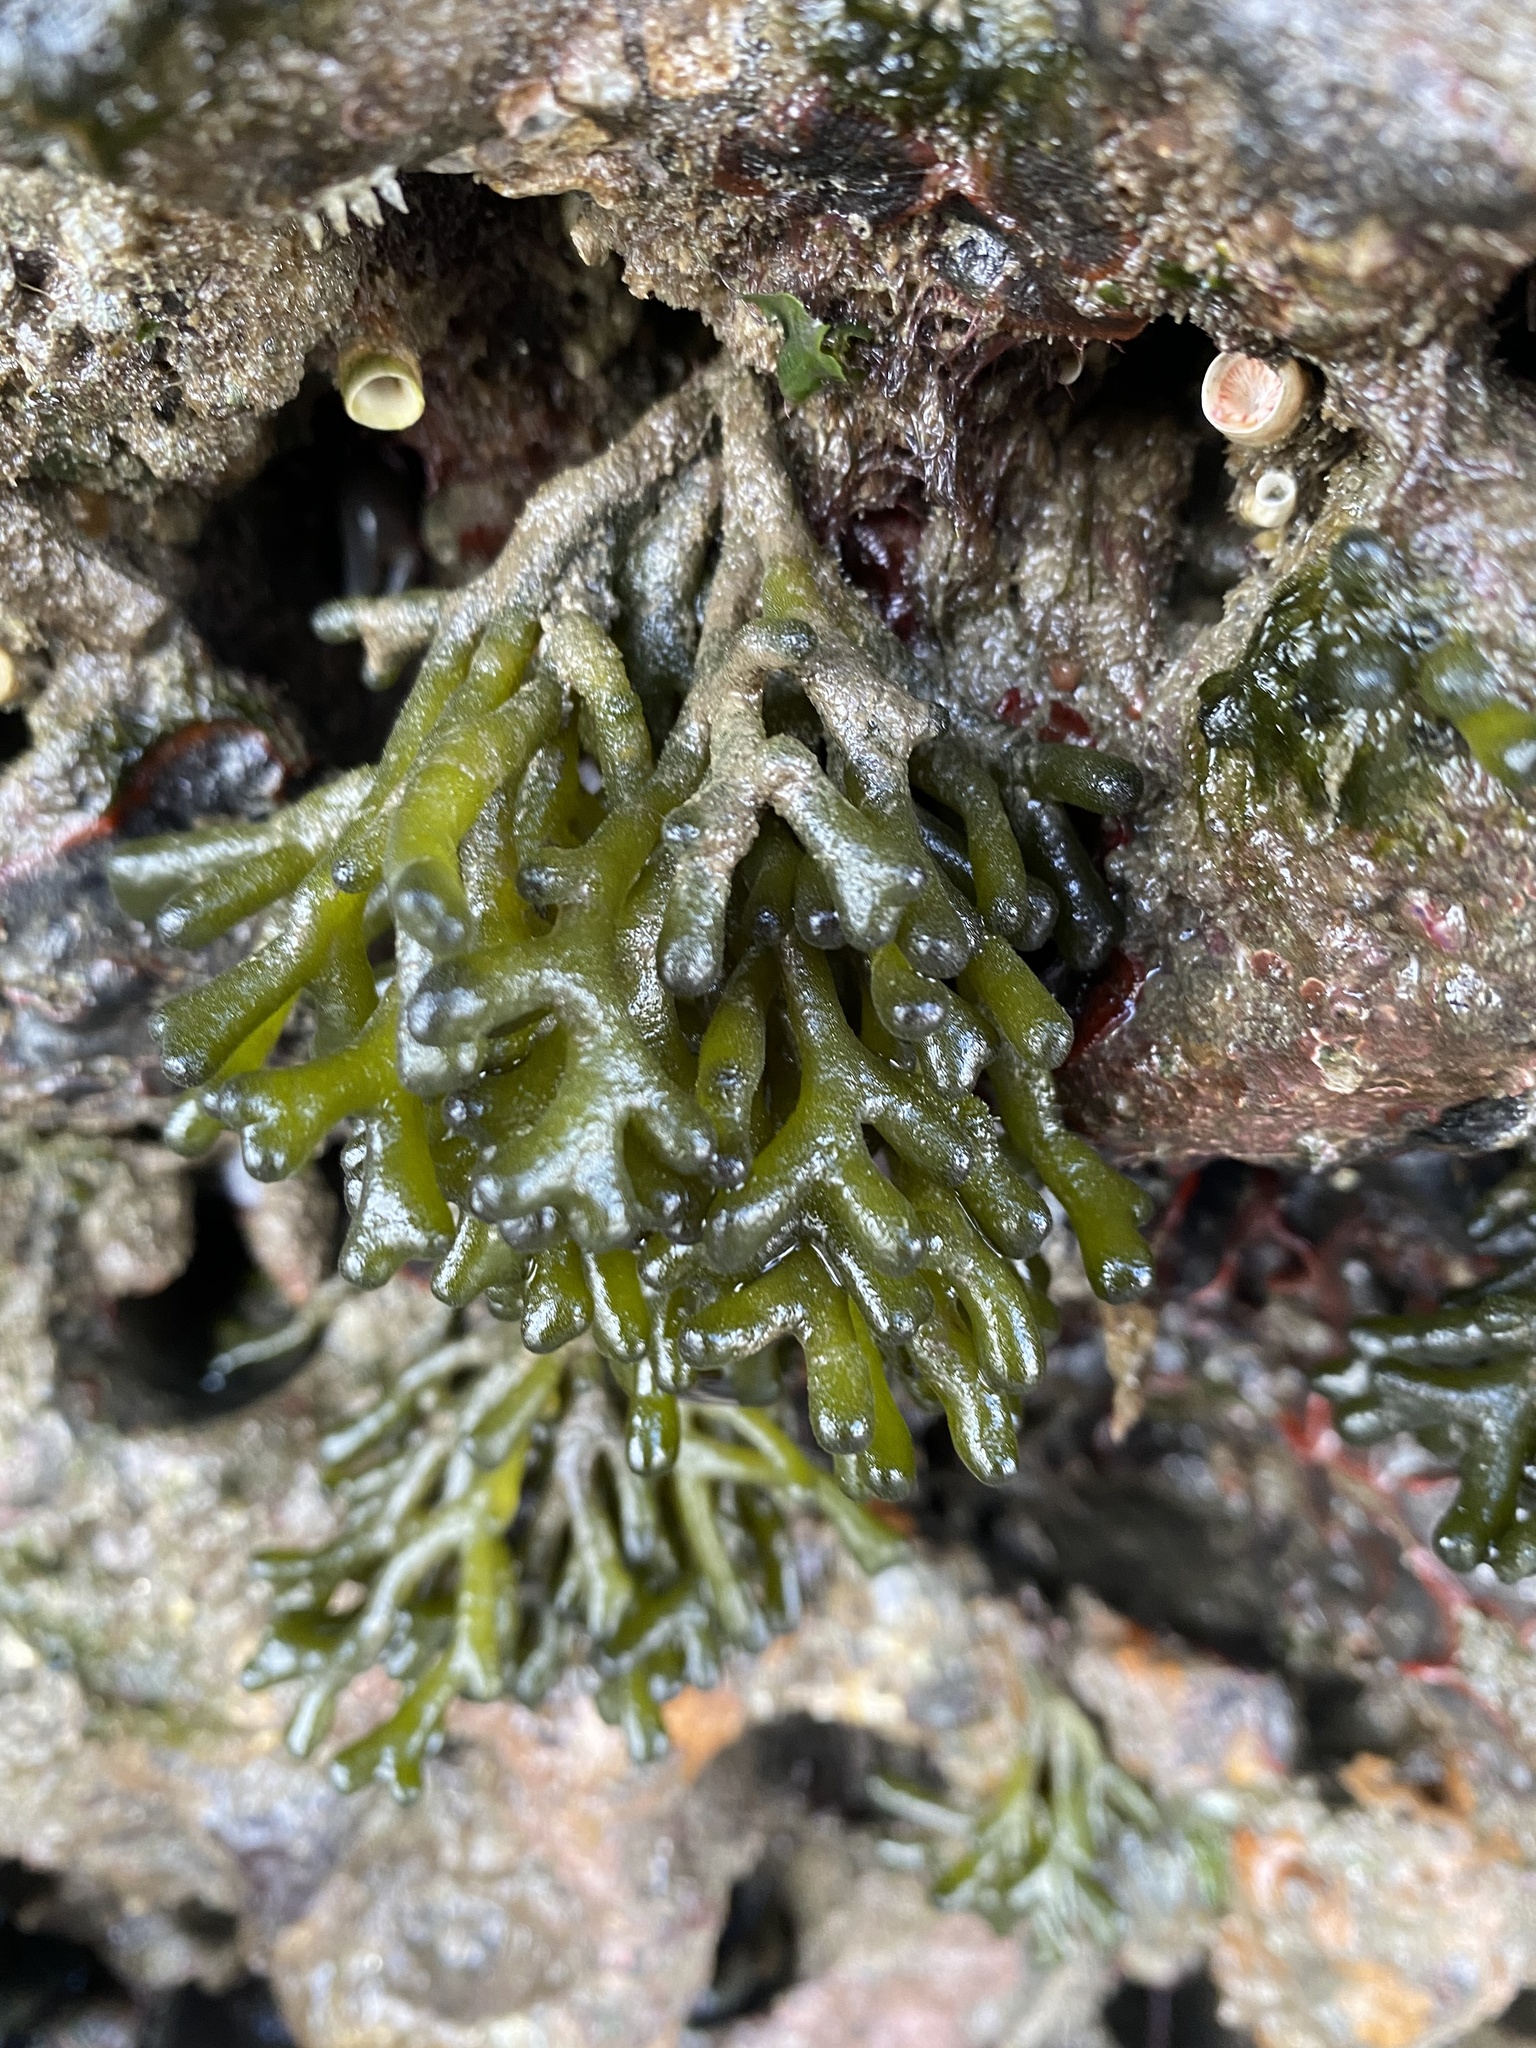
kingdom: Plantae
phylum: Chlorophyta
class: Ulvophyceae
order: Bryopsidales
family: Codiaceae
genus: Codium
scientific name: Codium fragile
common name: Dead man's fingers
